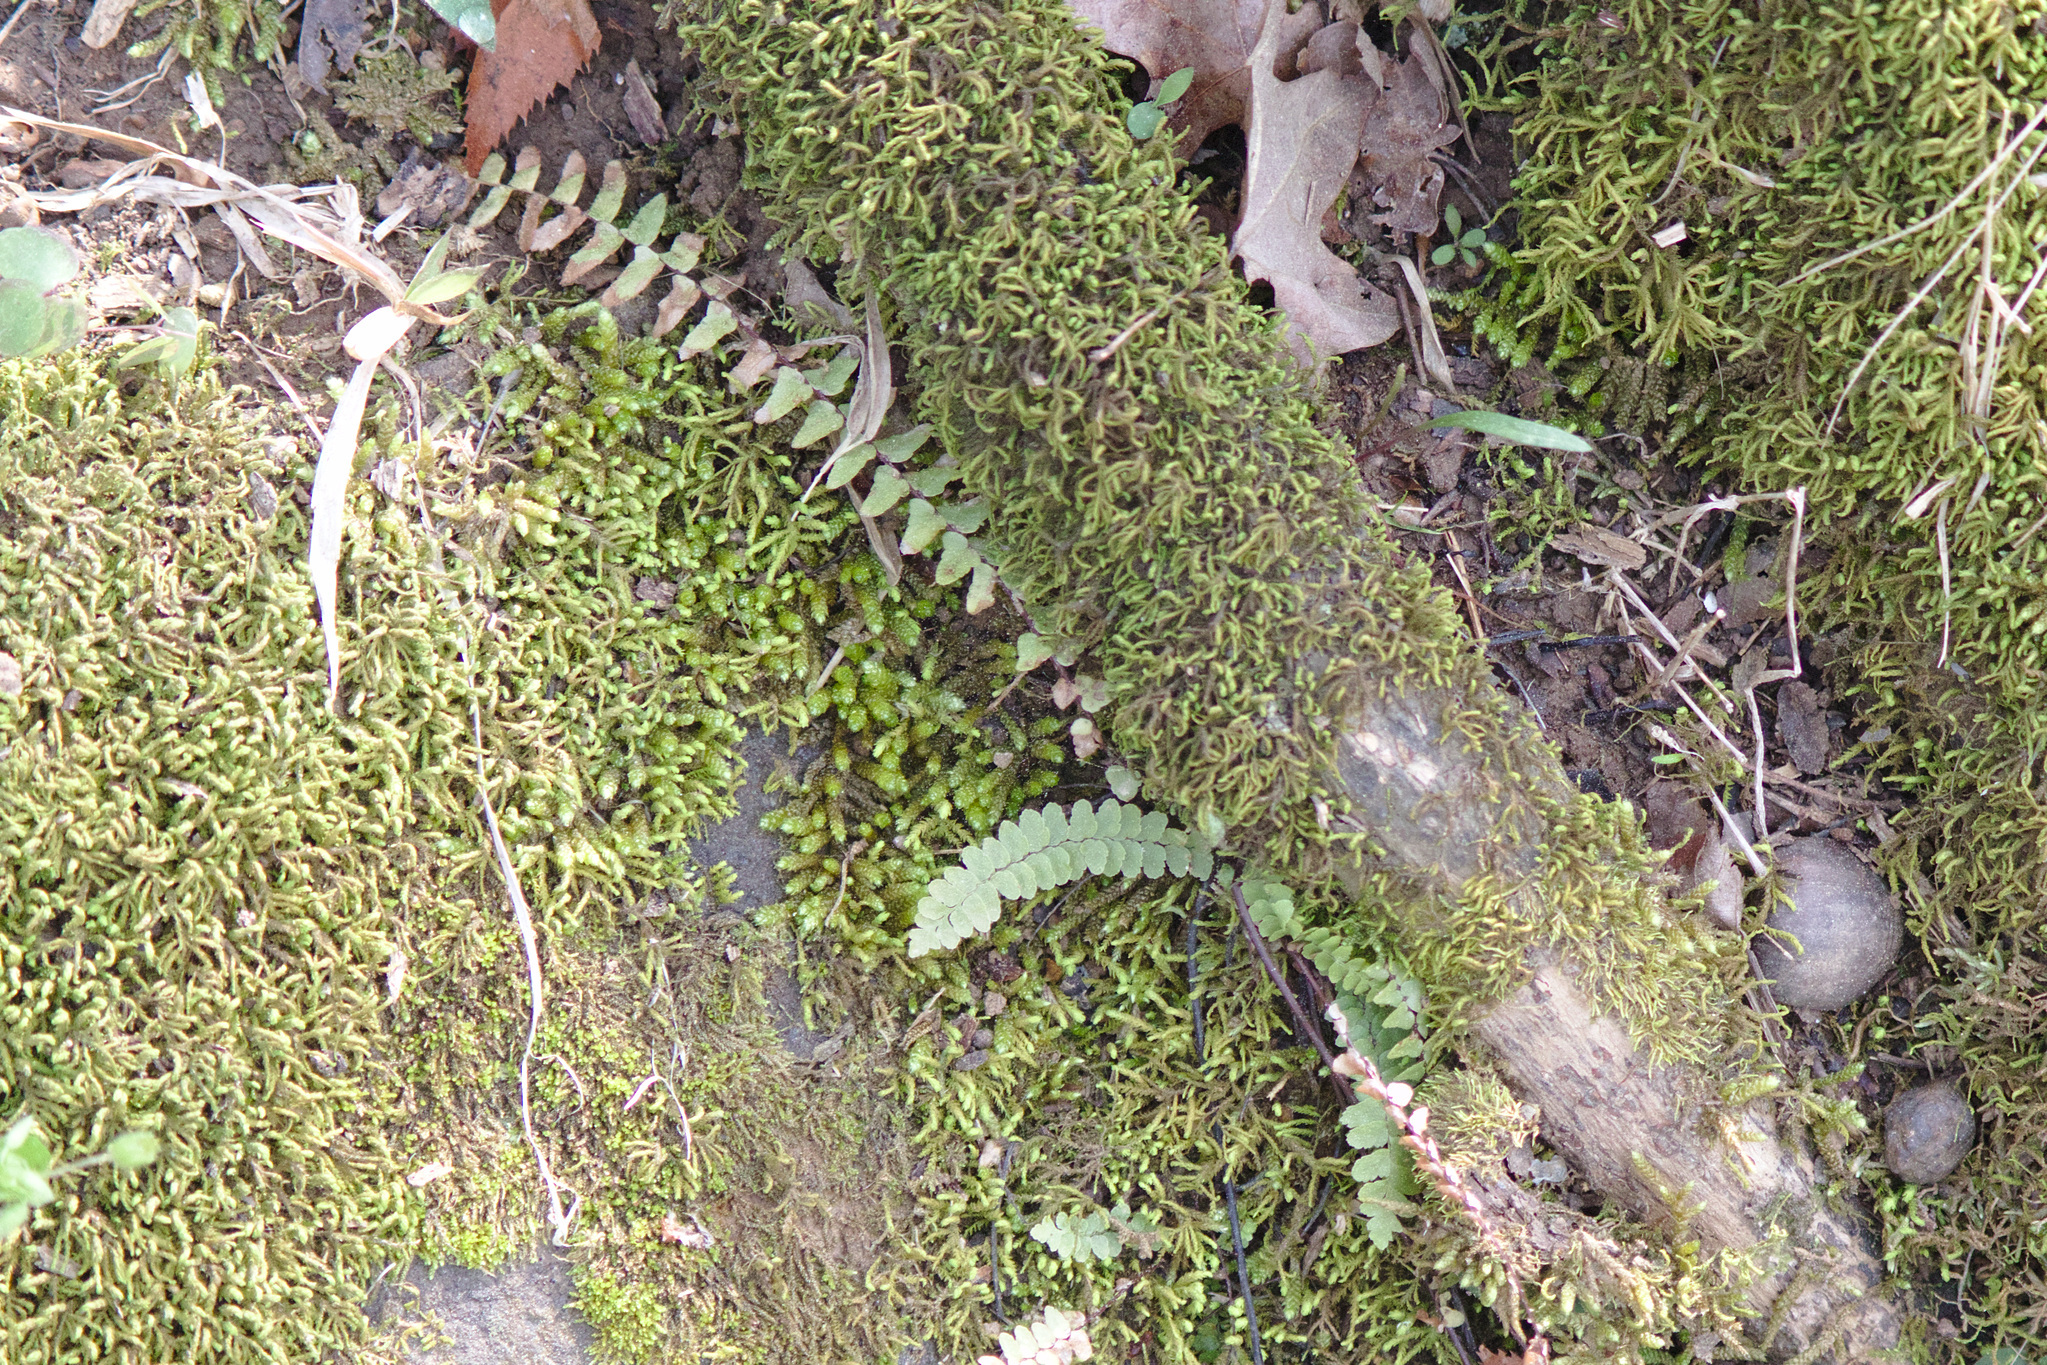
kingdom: Plantae
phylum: Tracheophyta
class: Polypodiopsida
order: Polypodiales
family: Aspleniaceae
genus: Asplenium
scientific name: Asplenium platyneuron
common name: Ebony spleenwort
